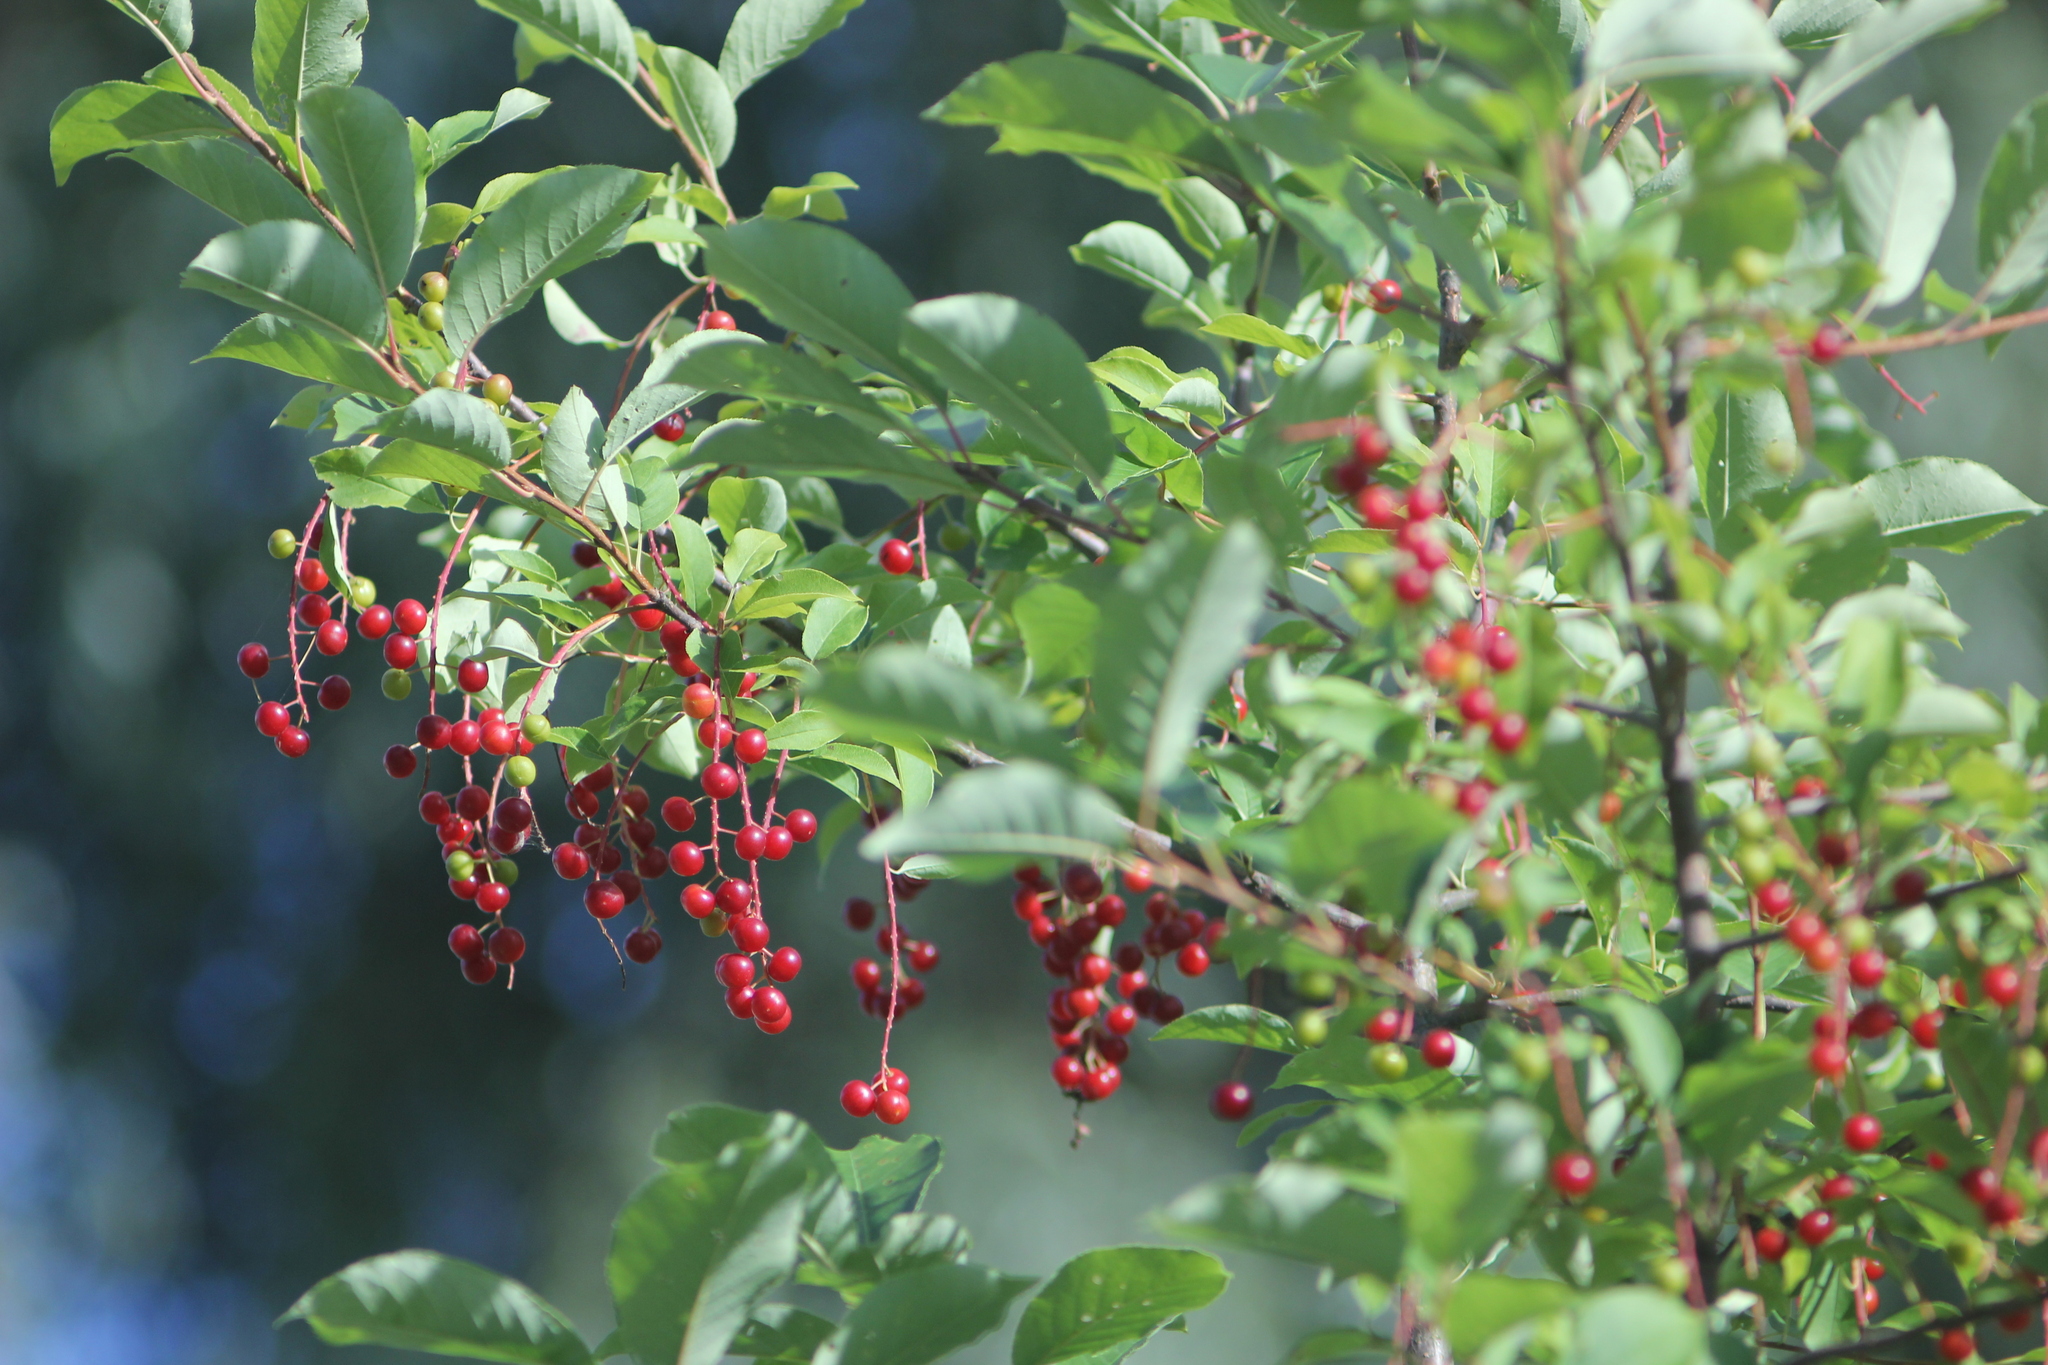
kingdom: Plantae
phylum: Tracheophyta
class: Magnoliopsida
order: Rosales
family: Rosaceae
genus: Prunus
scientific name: Prunus virginiana
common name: Chokecherry
